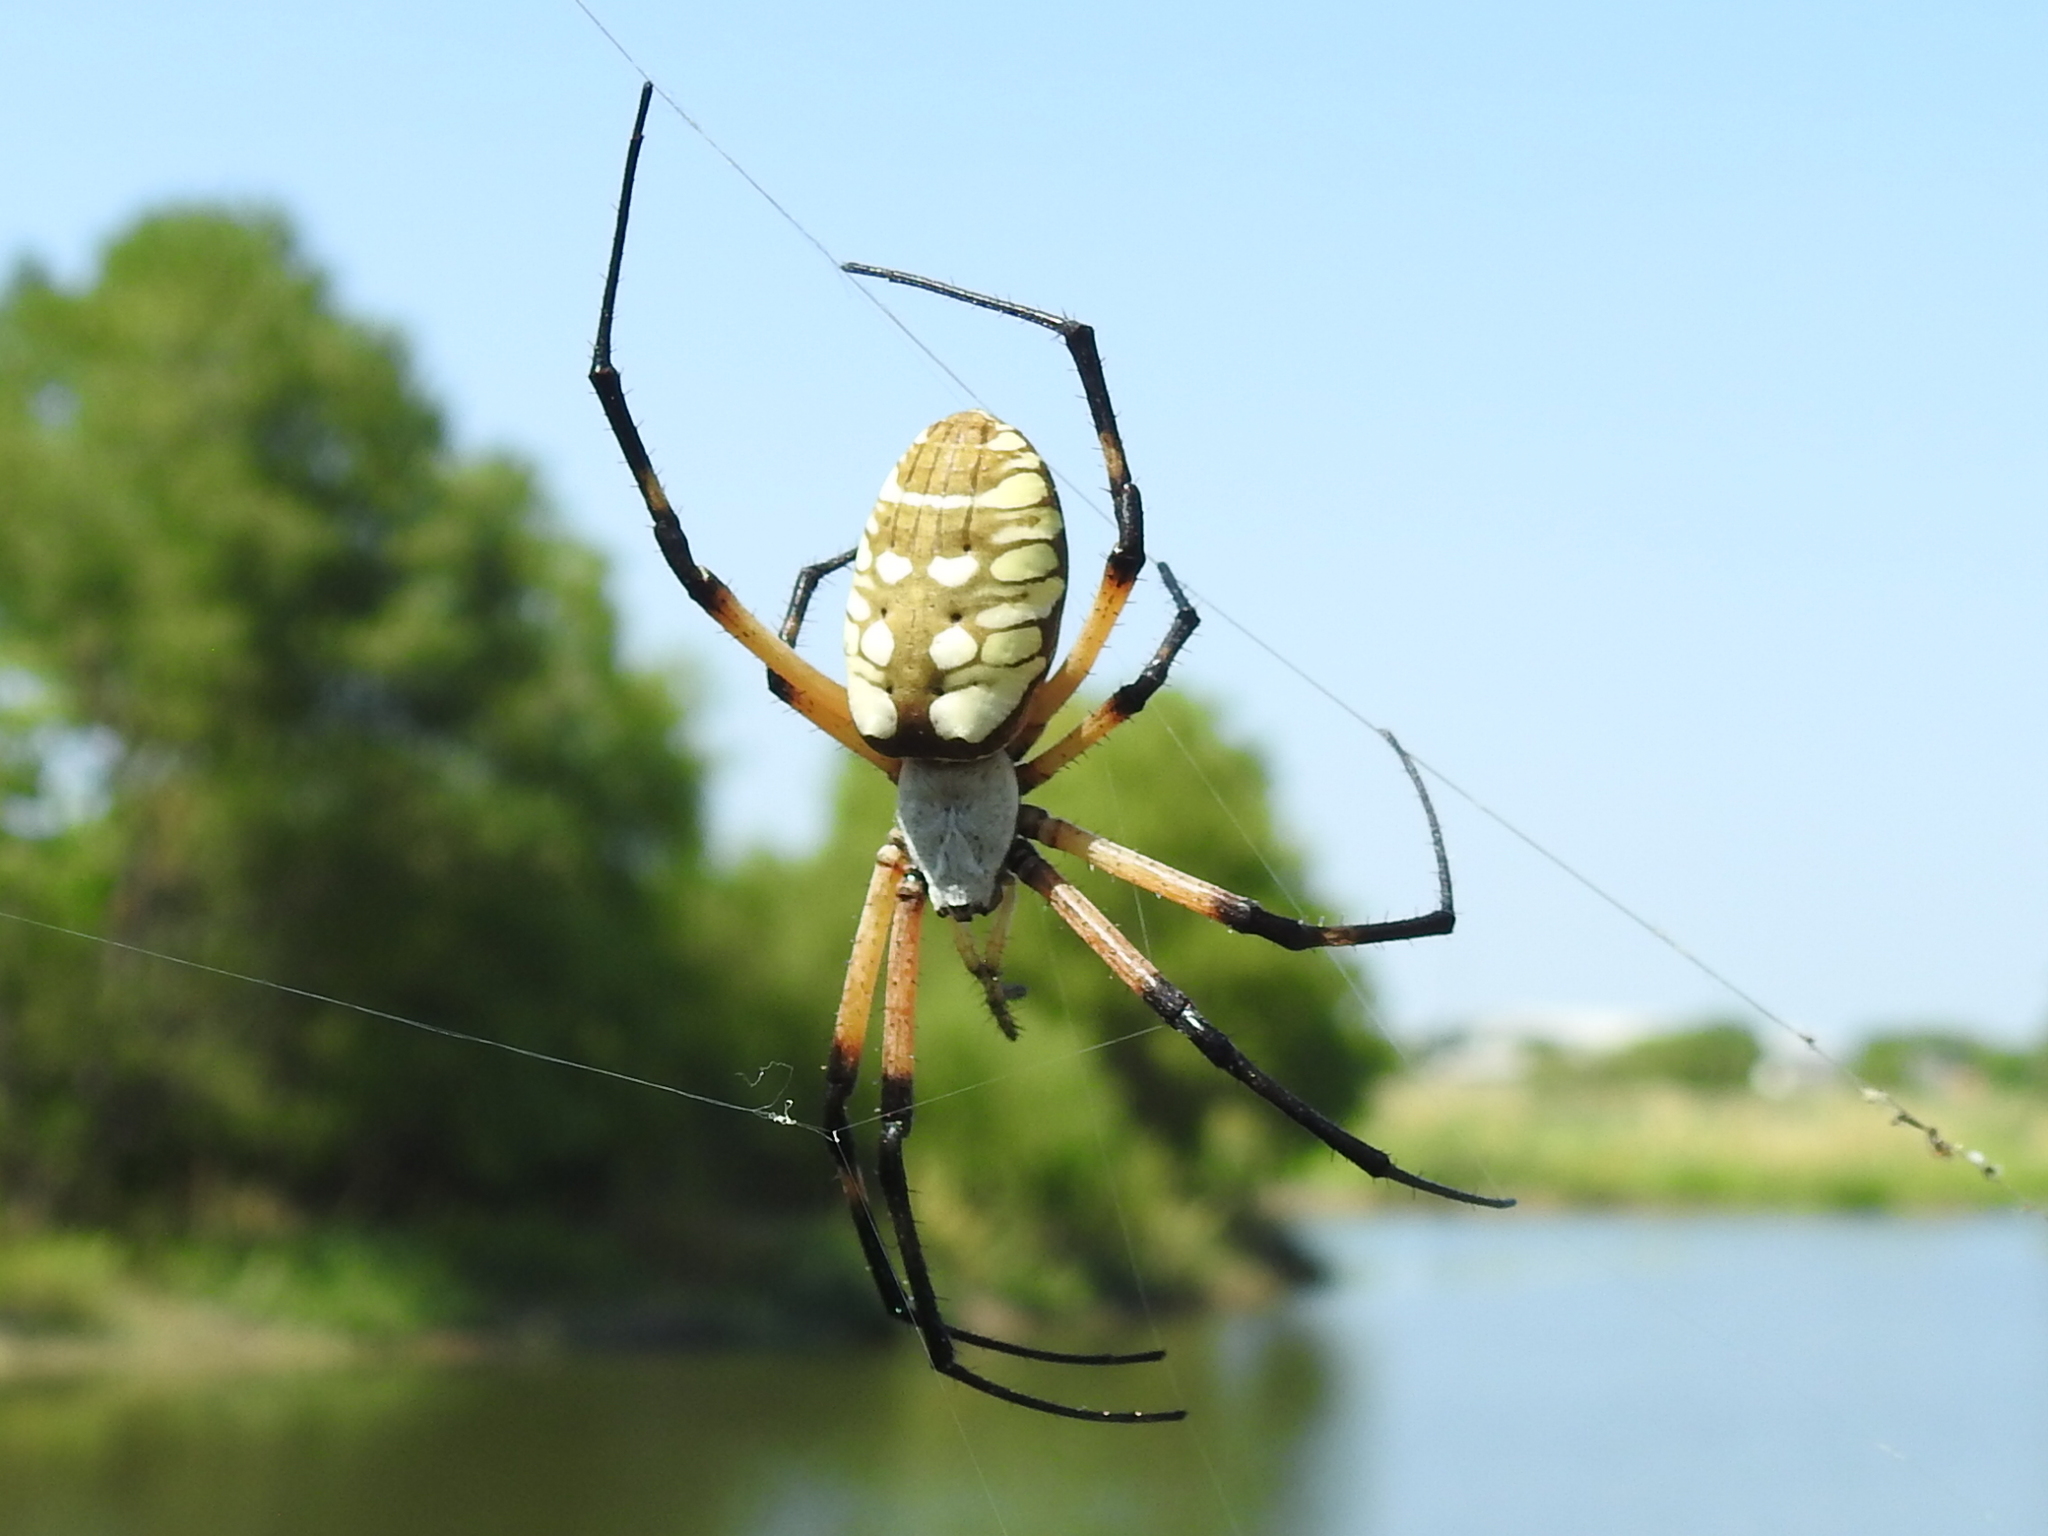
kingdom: Animalia
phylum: Arthropoda
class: Arachnida
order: Araneae
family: Araneidae
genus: Argiope
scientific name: Argiope aurantia
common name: Orb weavers
